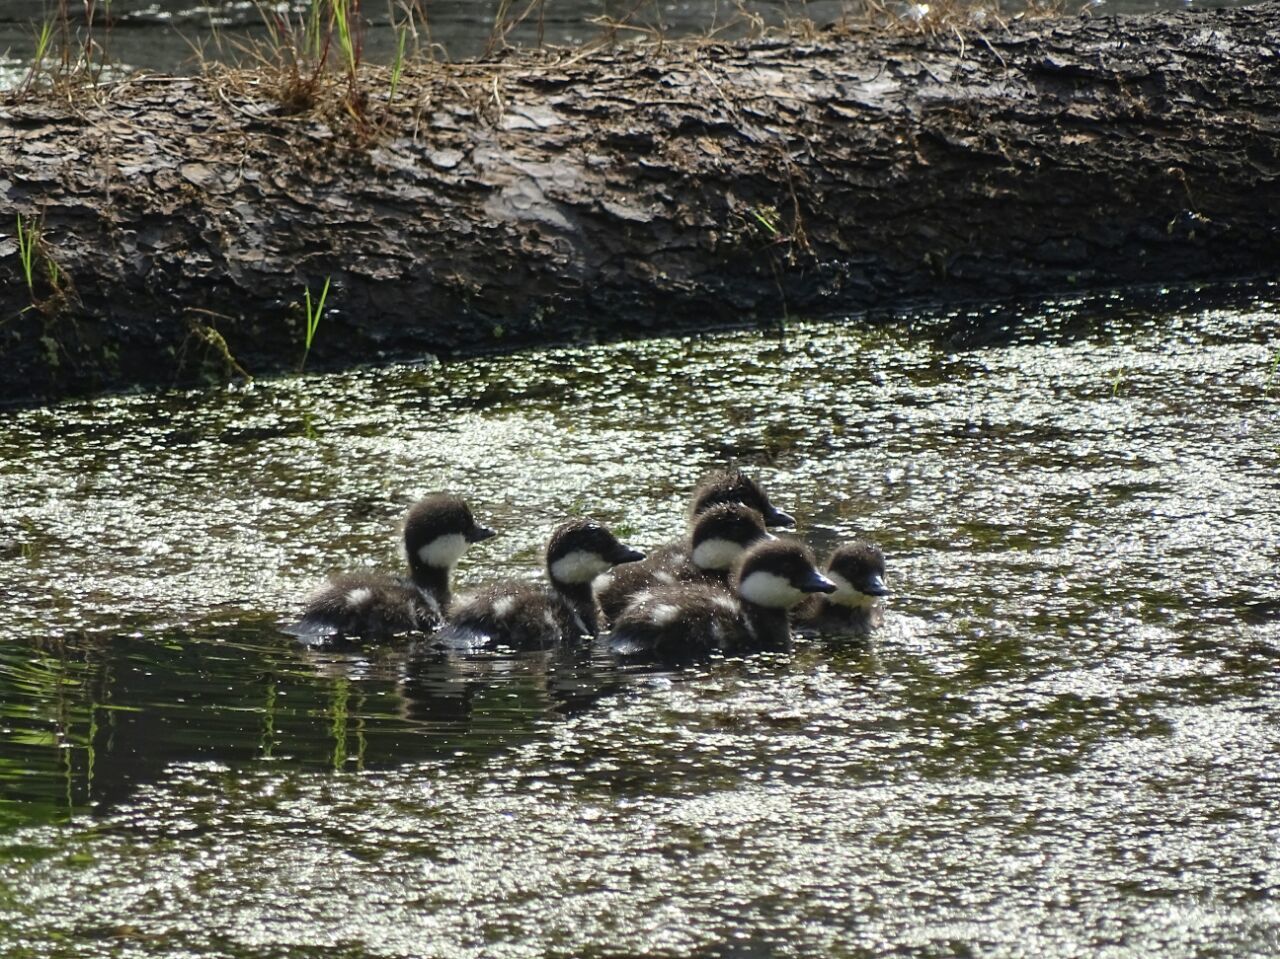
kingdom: Animalia
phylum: Chordata
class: Aves
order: Anseriformes
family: Anatidae
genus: Bucephala
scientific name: Bucephala clangula
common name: Common goldeneye
